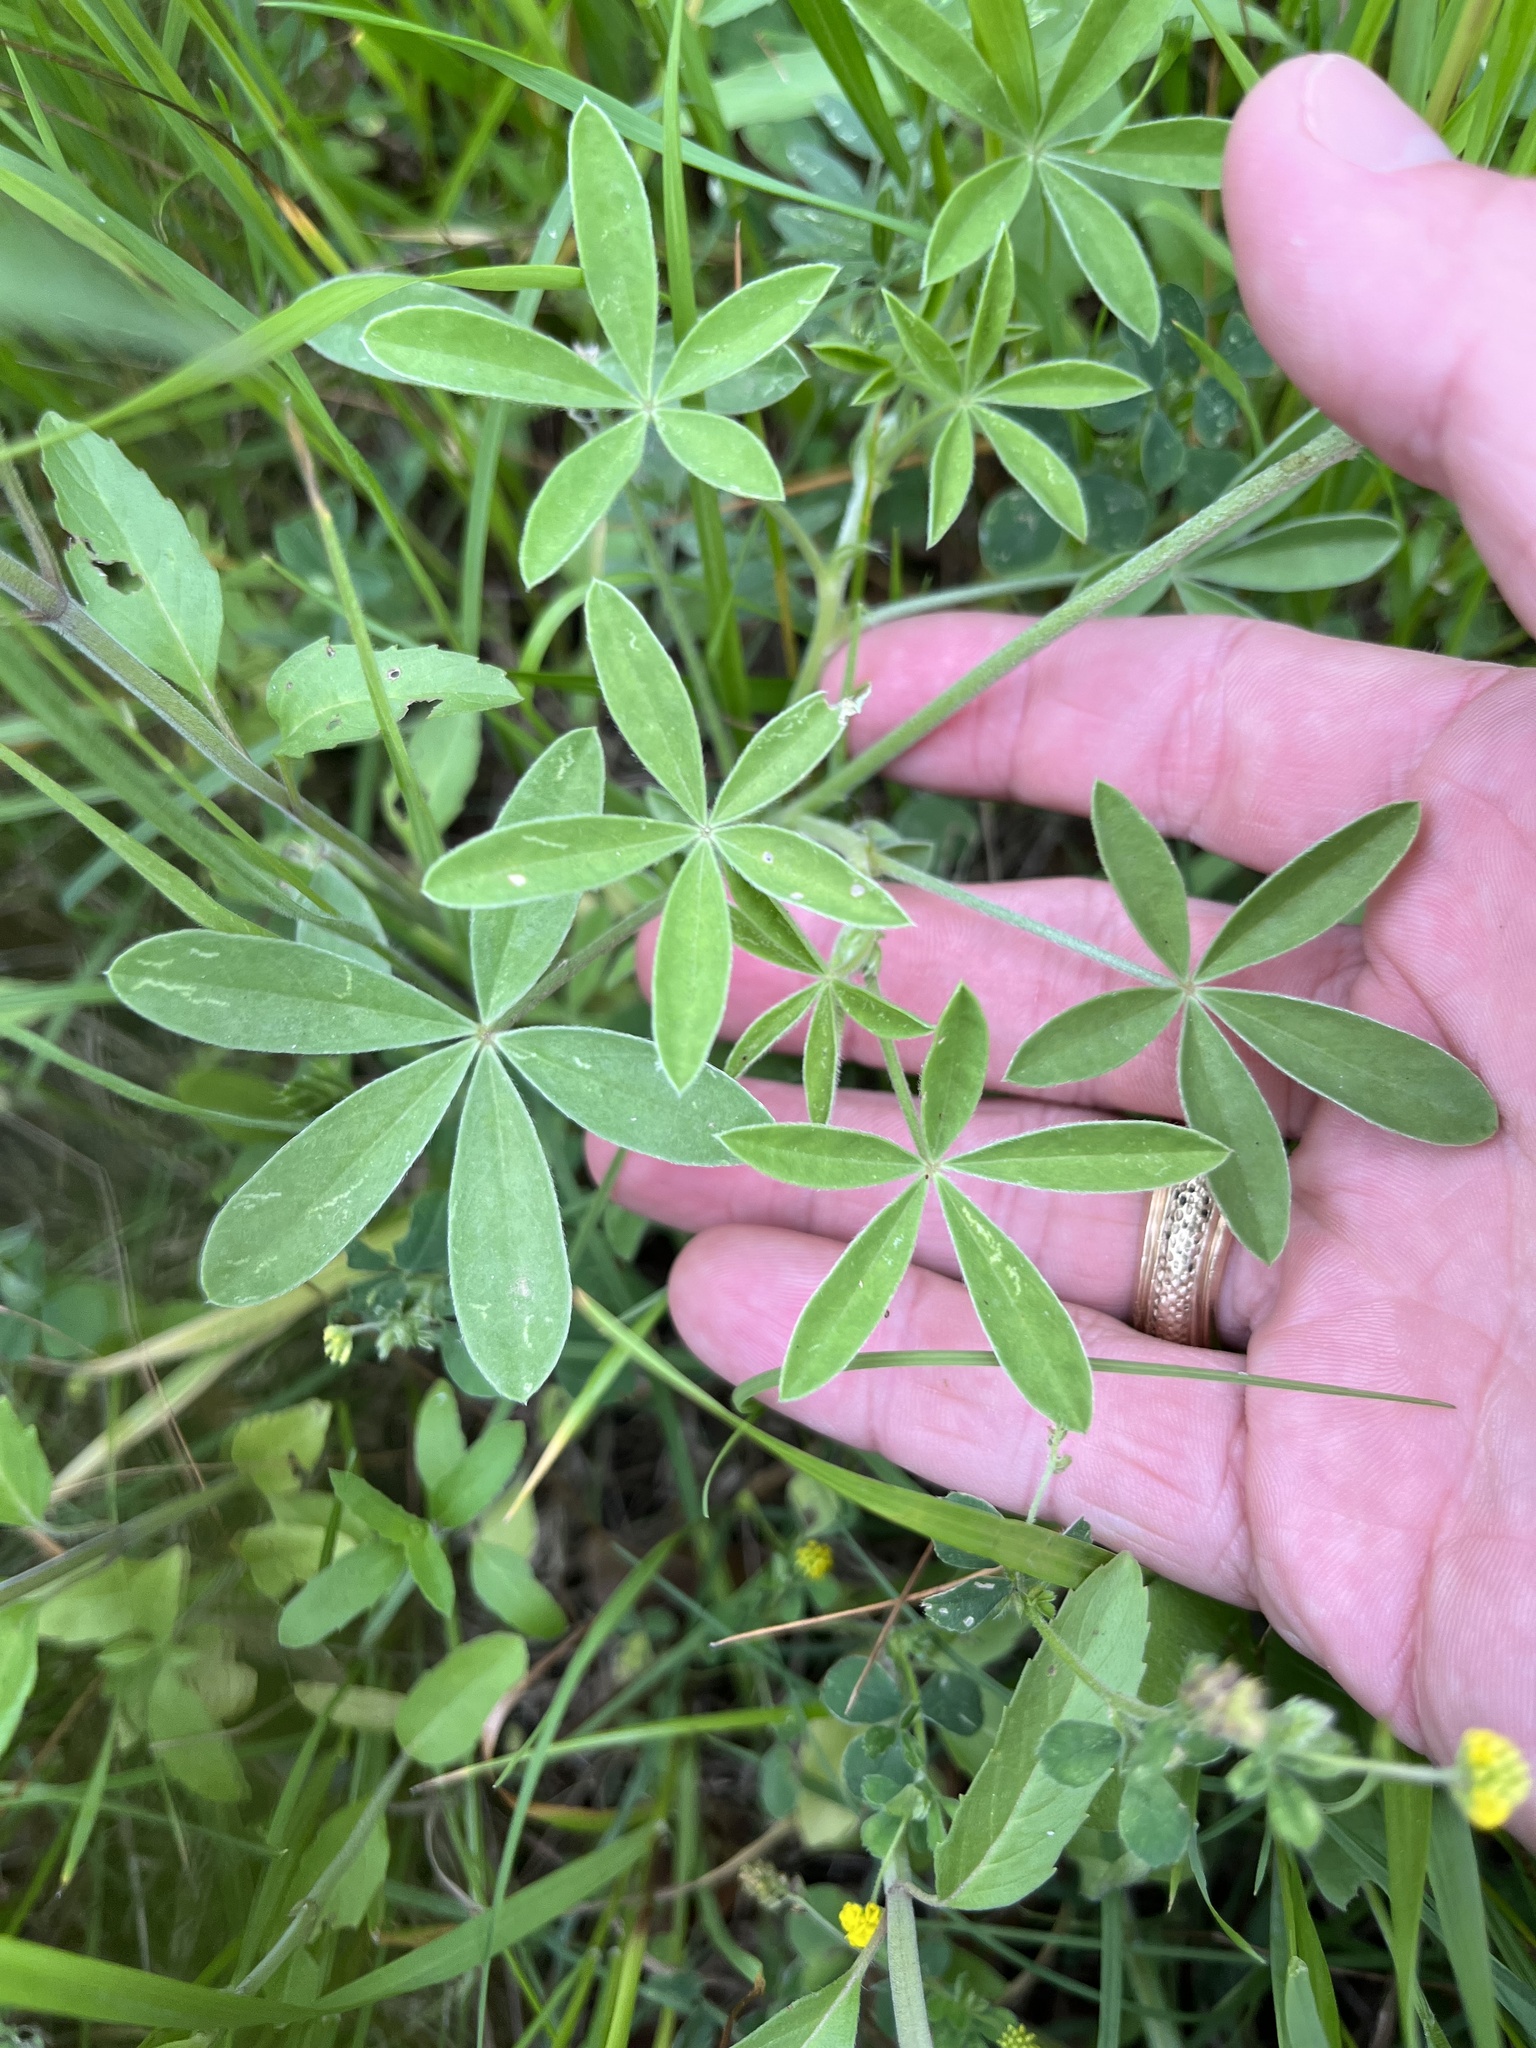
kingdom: Plantae
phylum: Tracheophyta
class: Magnoliopsida
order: Fabales
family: Fabaceae
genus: Lupinus
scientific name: Lupinus texensis
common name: Texas bluebonnet
